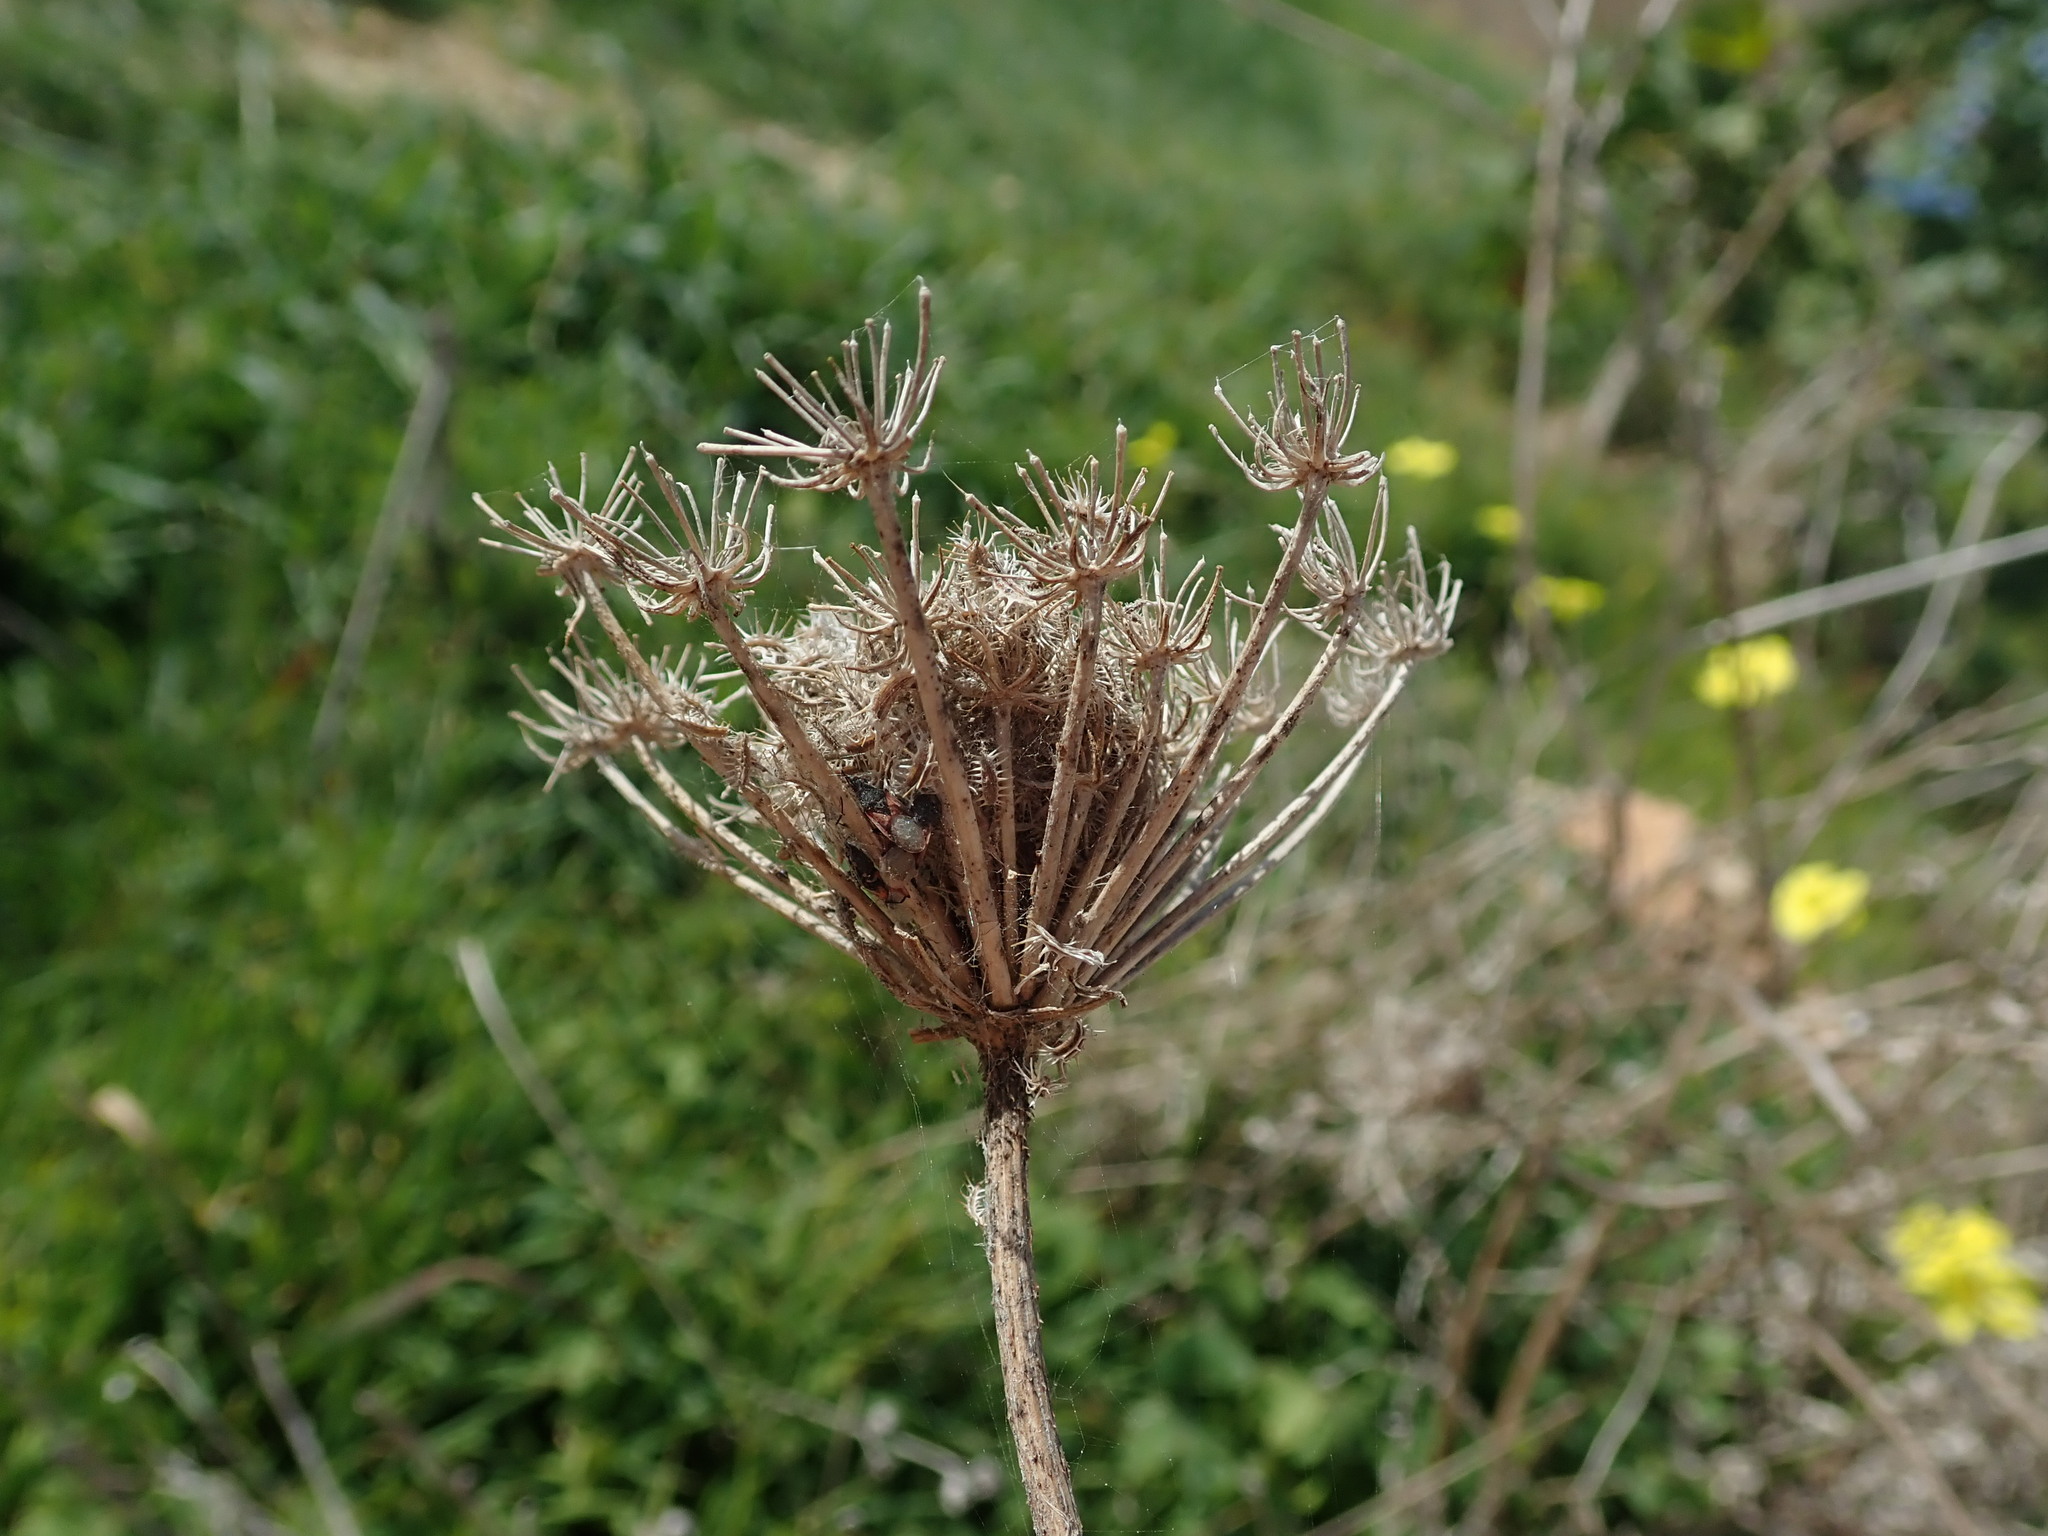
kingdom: Plantae
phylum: Tracheophyta
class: Magnoliopsida
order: Apiales
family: Apiaceae
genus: Daucus
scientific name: Daucus carota
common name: Wild carrot
